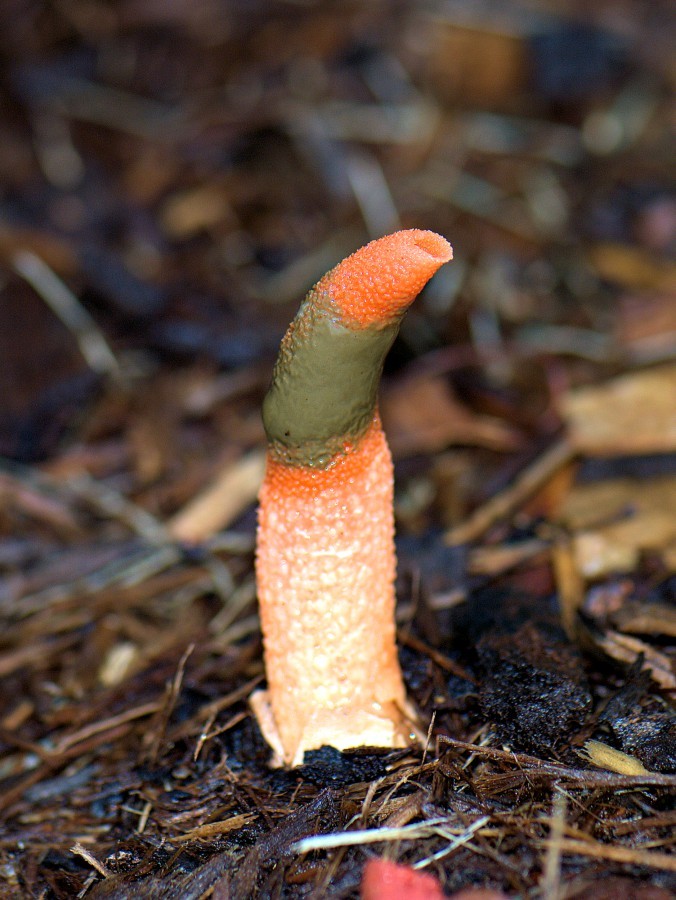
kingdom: Fungi
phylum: Basidiomycota
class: Agaricomycetes
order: Phallales
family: Phallaceae
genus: Mutinus
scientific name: Mutinus elegans
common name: Devil's dipstick
